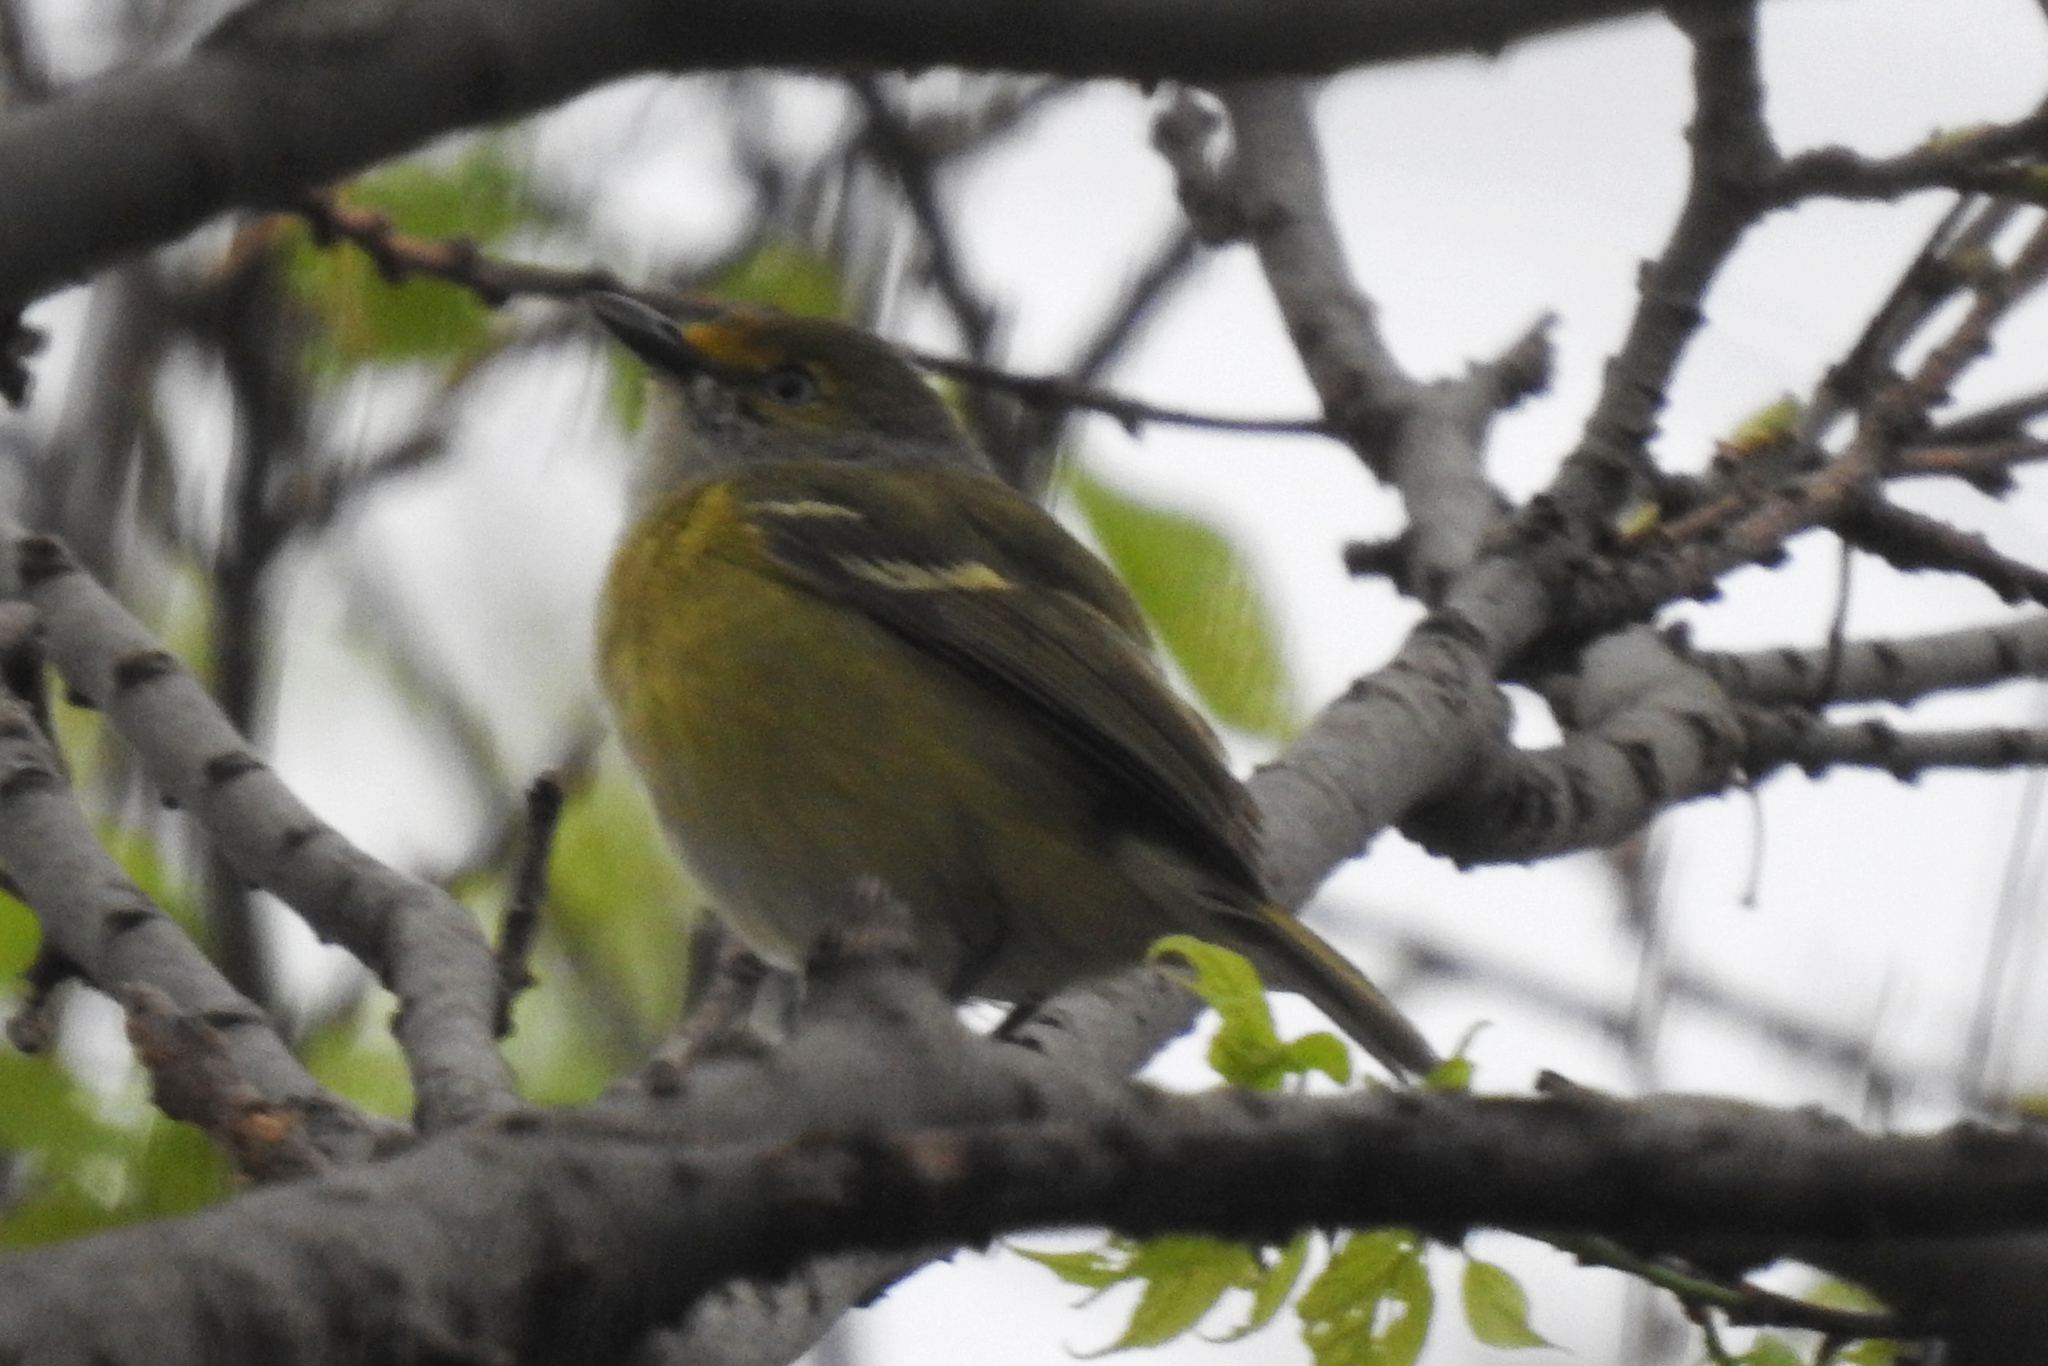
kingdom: Animalia
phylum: Chordata
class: Aves
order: Passeriformes
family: Vireonidae
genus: Vireo
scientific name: Vireo griseus
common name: White-eyed vireo
